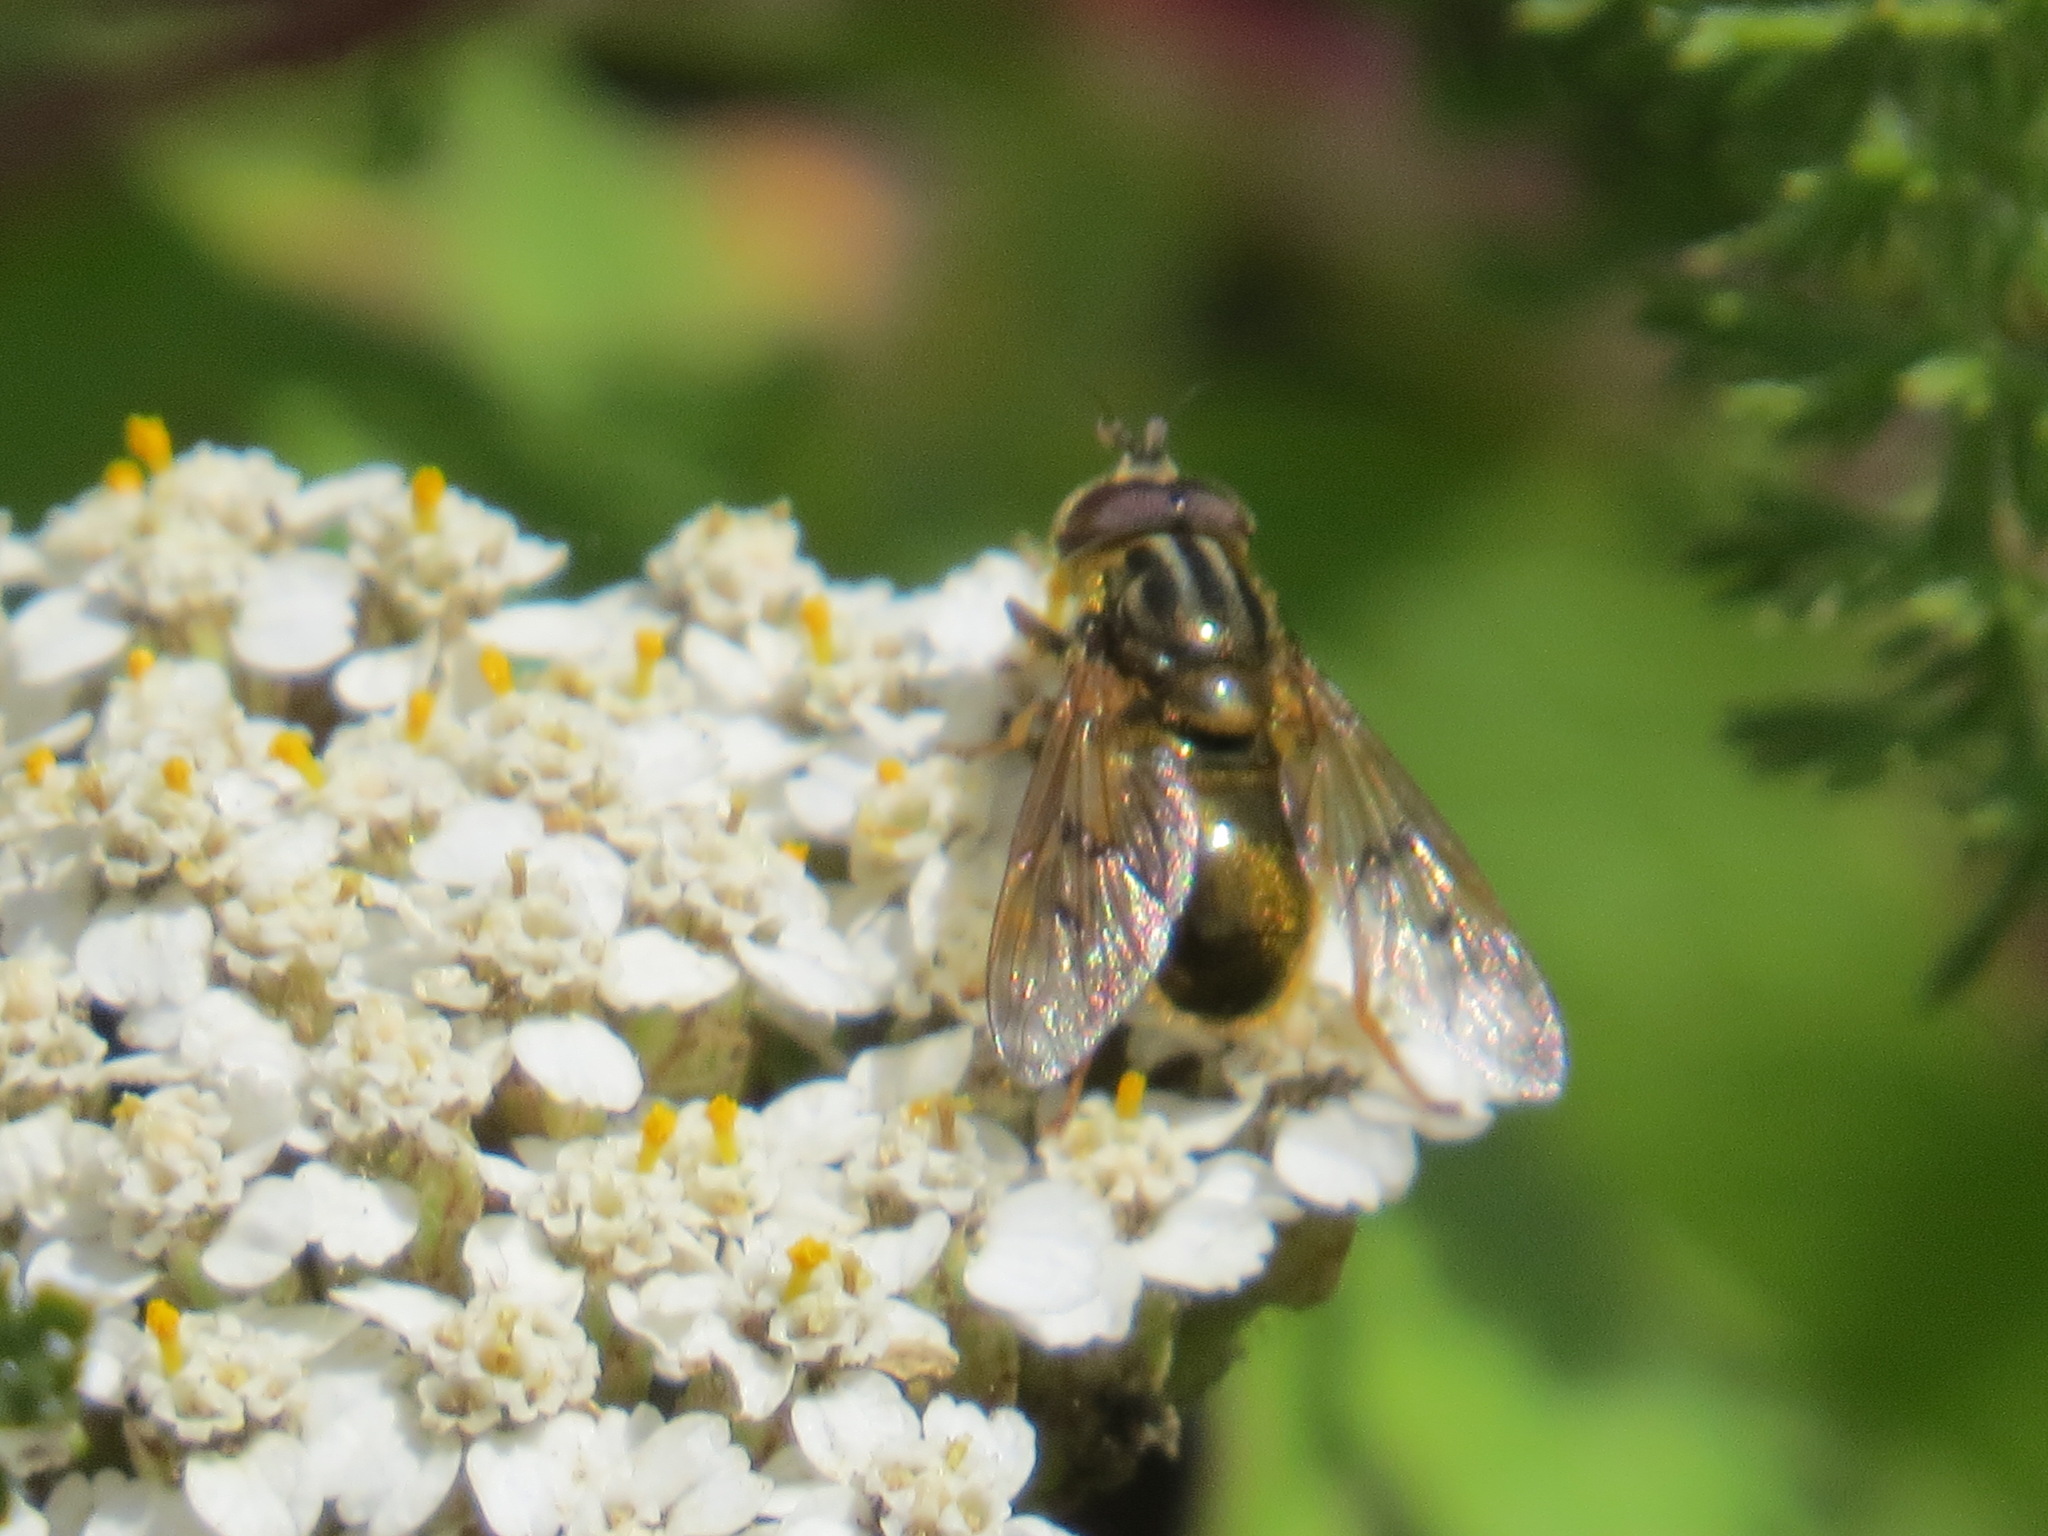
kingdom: Animalia
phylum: Arthropoda
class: Insecta
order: Diptera
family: Syrphidae
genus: Ferdinandea
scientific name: Ferdinandea croesus
